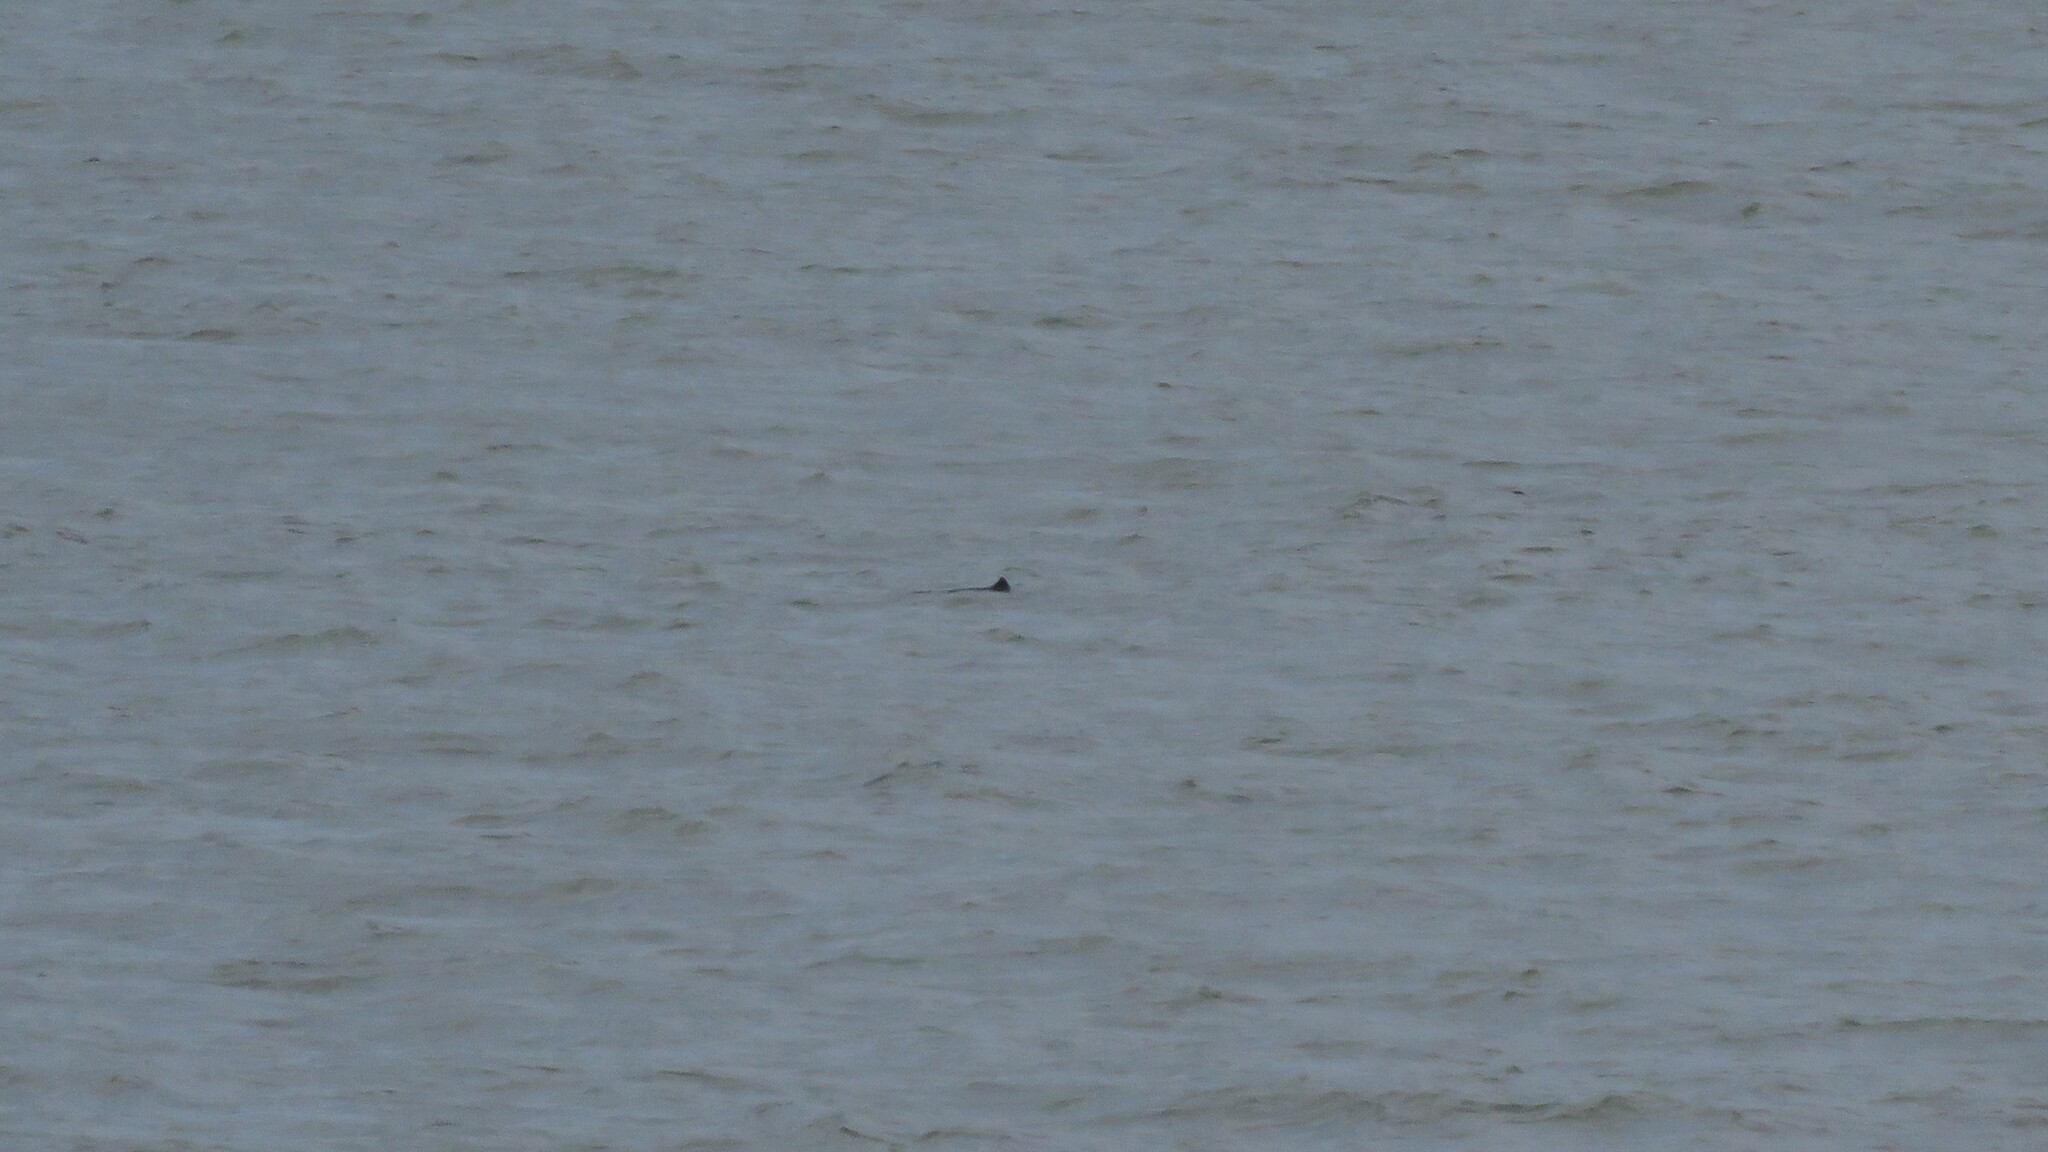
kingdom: Animalia
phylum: Chordata
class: Mammalia
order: Cetacea
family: Phocoenidae
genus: Phocoena
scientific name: Phocoena phocoena
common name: Harbor porpoise
